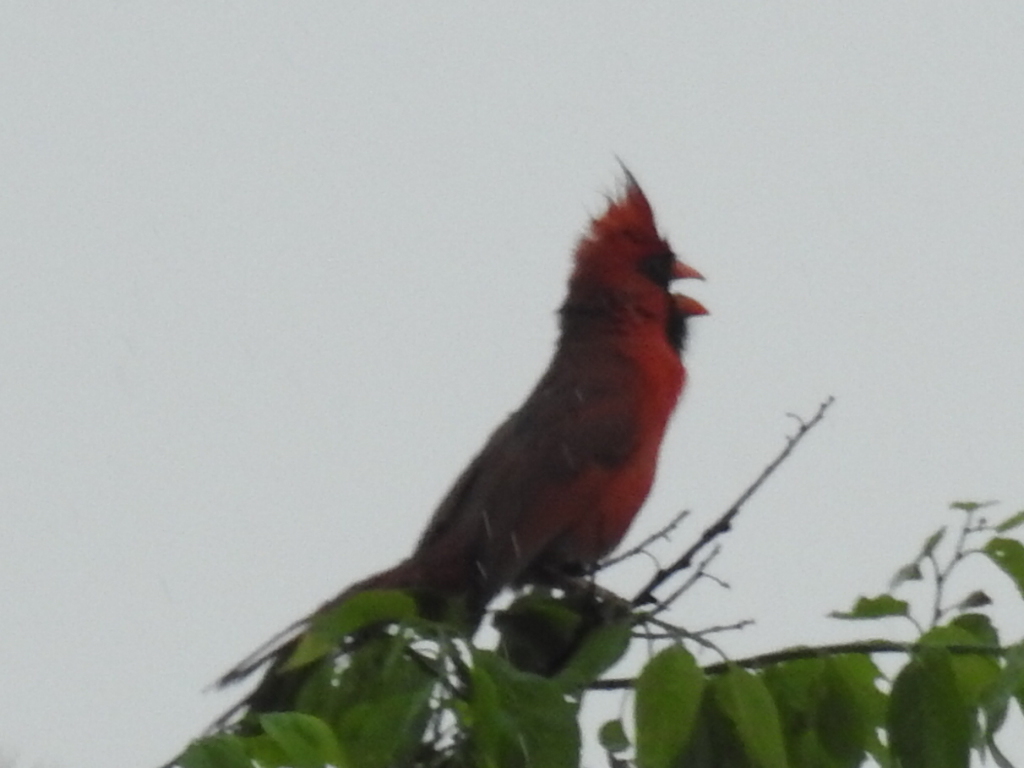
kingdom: Animalia
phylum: Chordata
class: Aves
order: Passeriformes
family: Cardinalidae
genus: Cardinalis
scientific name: Cardinalis cardinalis
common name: Northern cardinal
